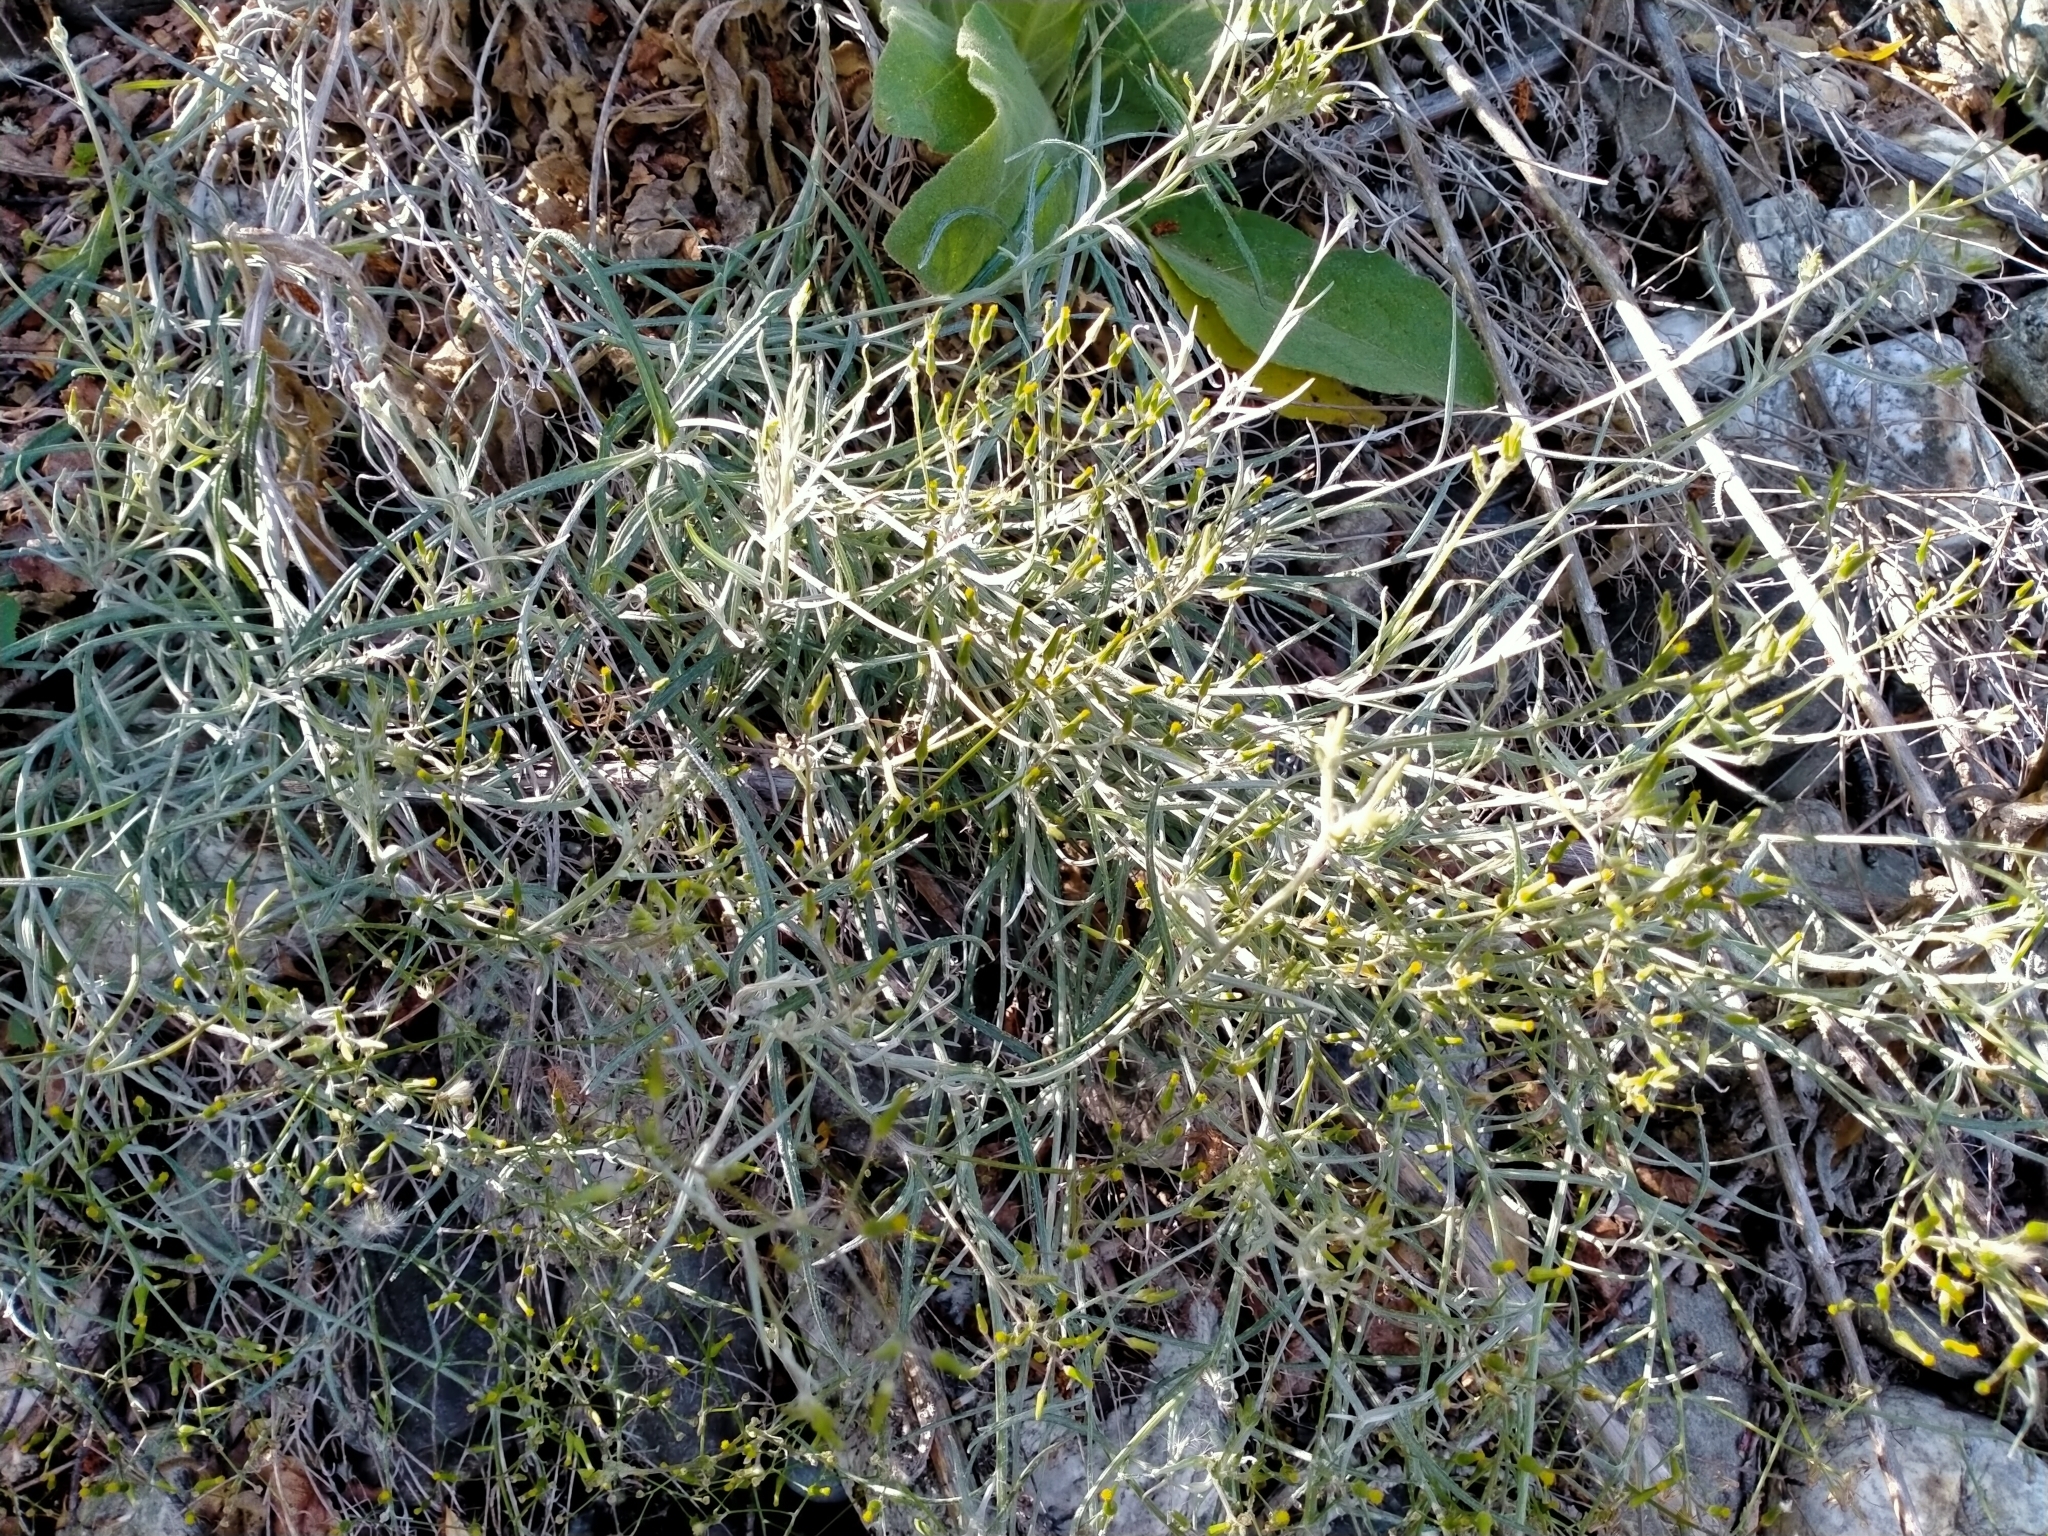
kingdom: Plantae
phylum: Tracheophyta
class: Magnoliopsida
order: Asterales
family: Asteraceae
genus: Senecio
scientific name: Senecio quadridentatus
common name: Cotton fireweed
